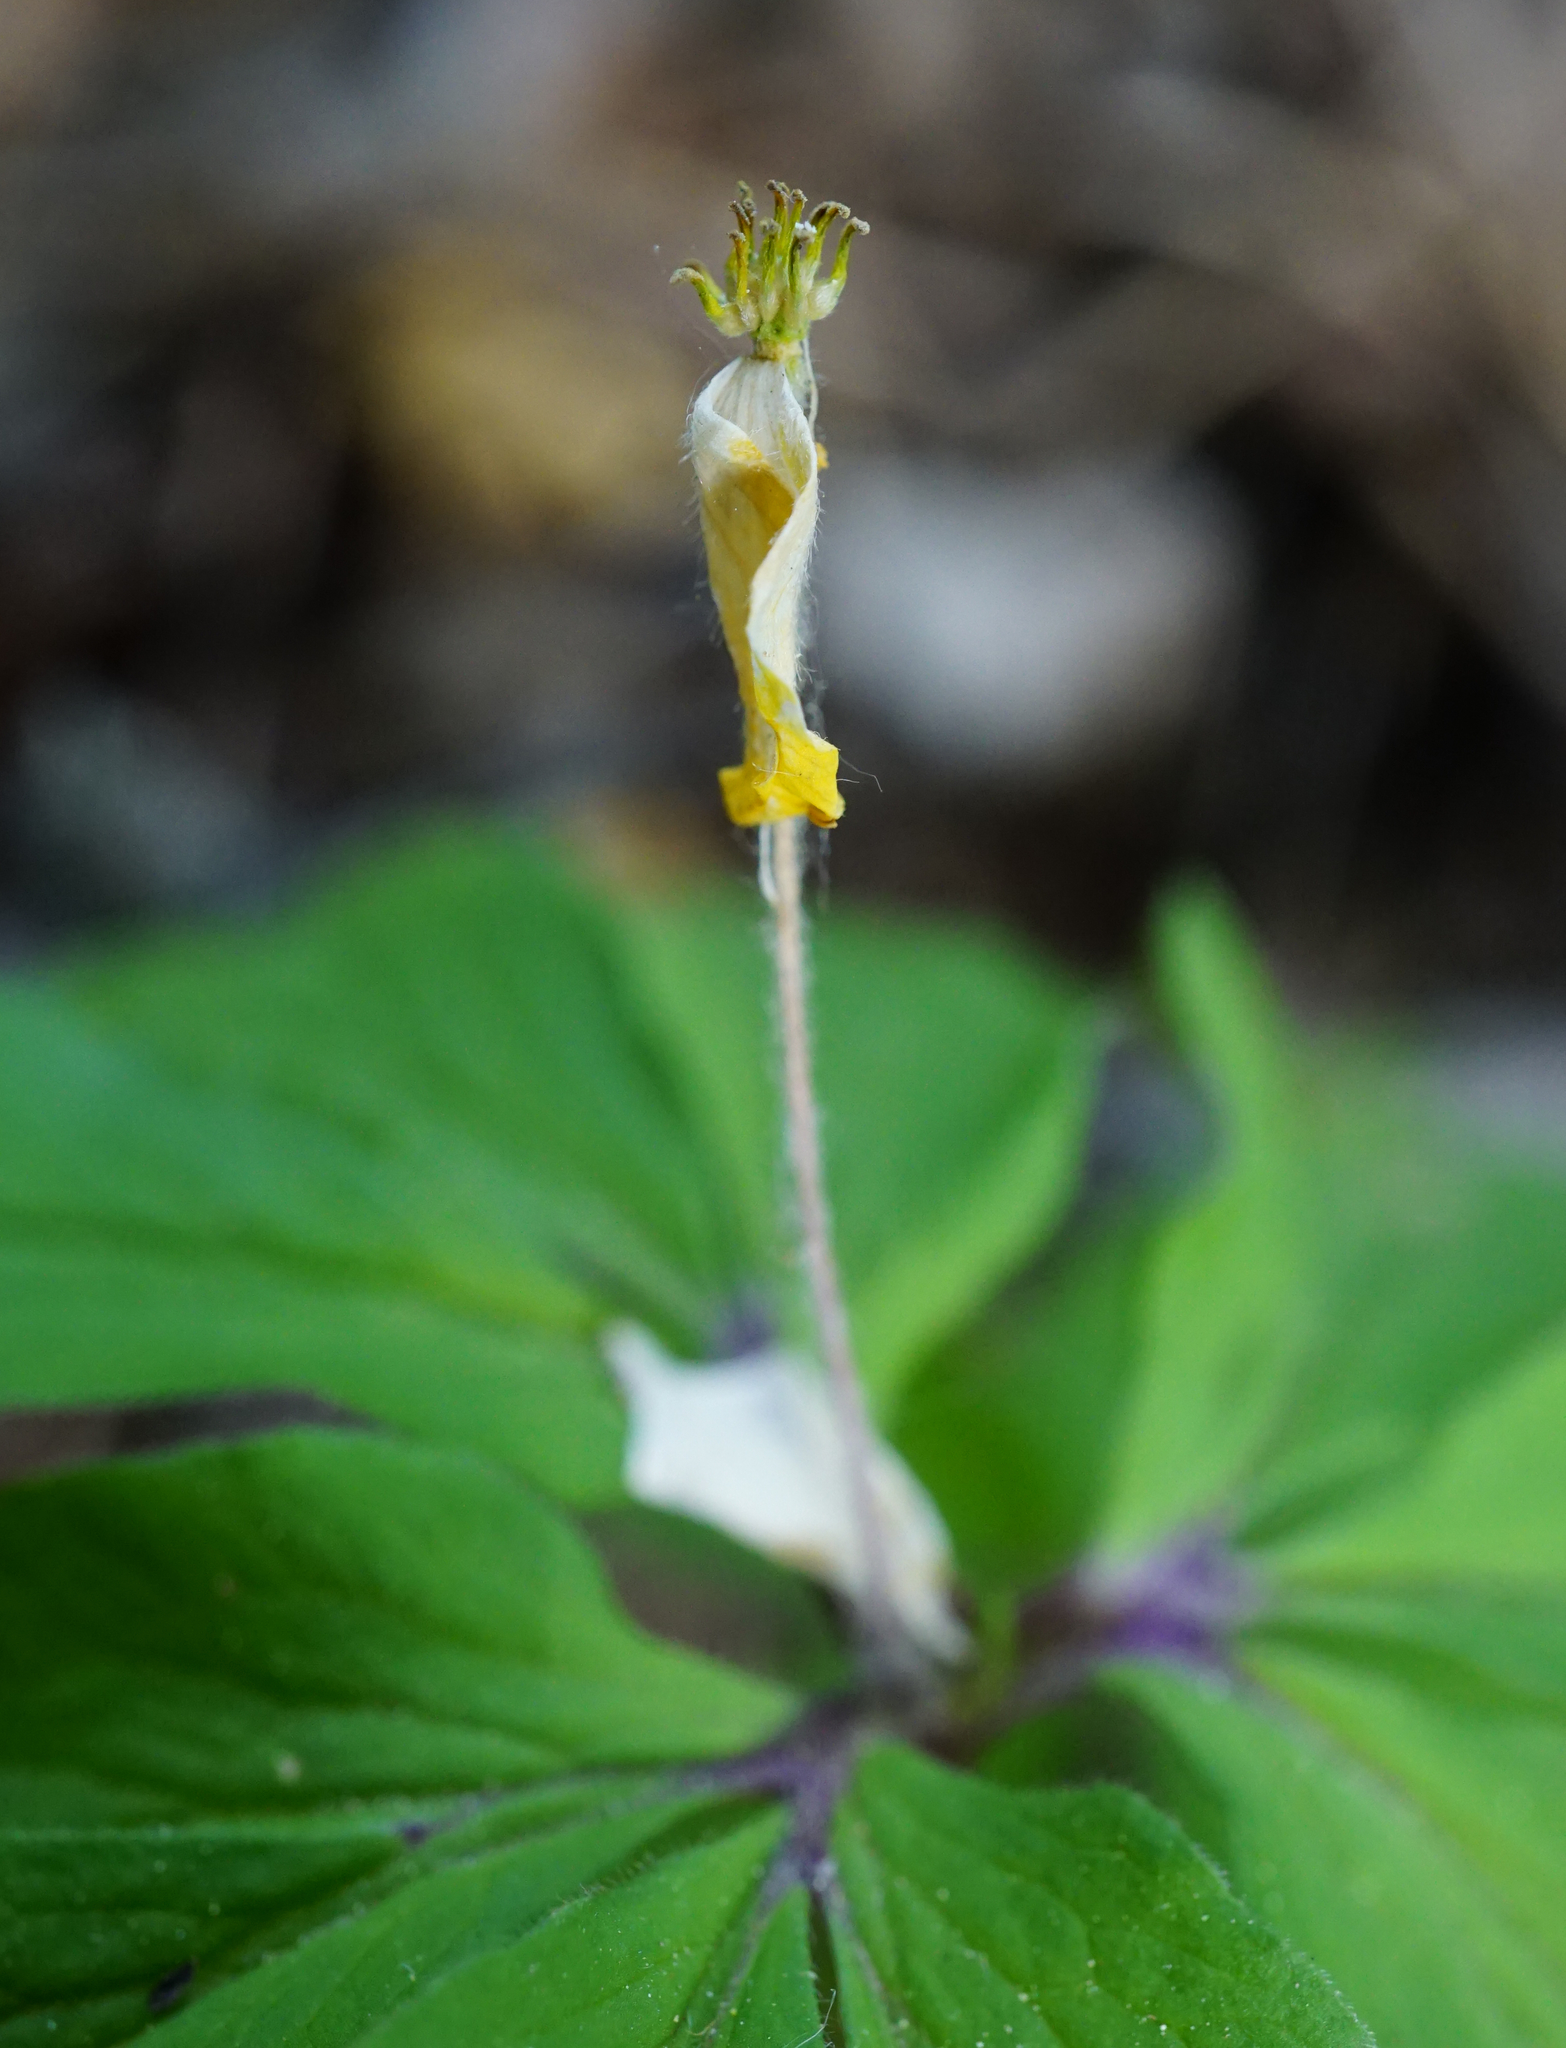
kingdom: Plantae
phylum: Tracheophyta
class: Magnoliopsida
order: Ranunculales
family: Ranunculaceae
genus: Anemone
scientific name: Anemone ranunculoides
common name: Yellow anemone
